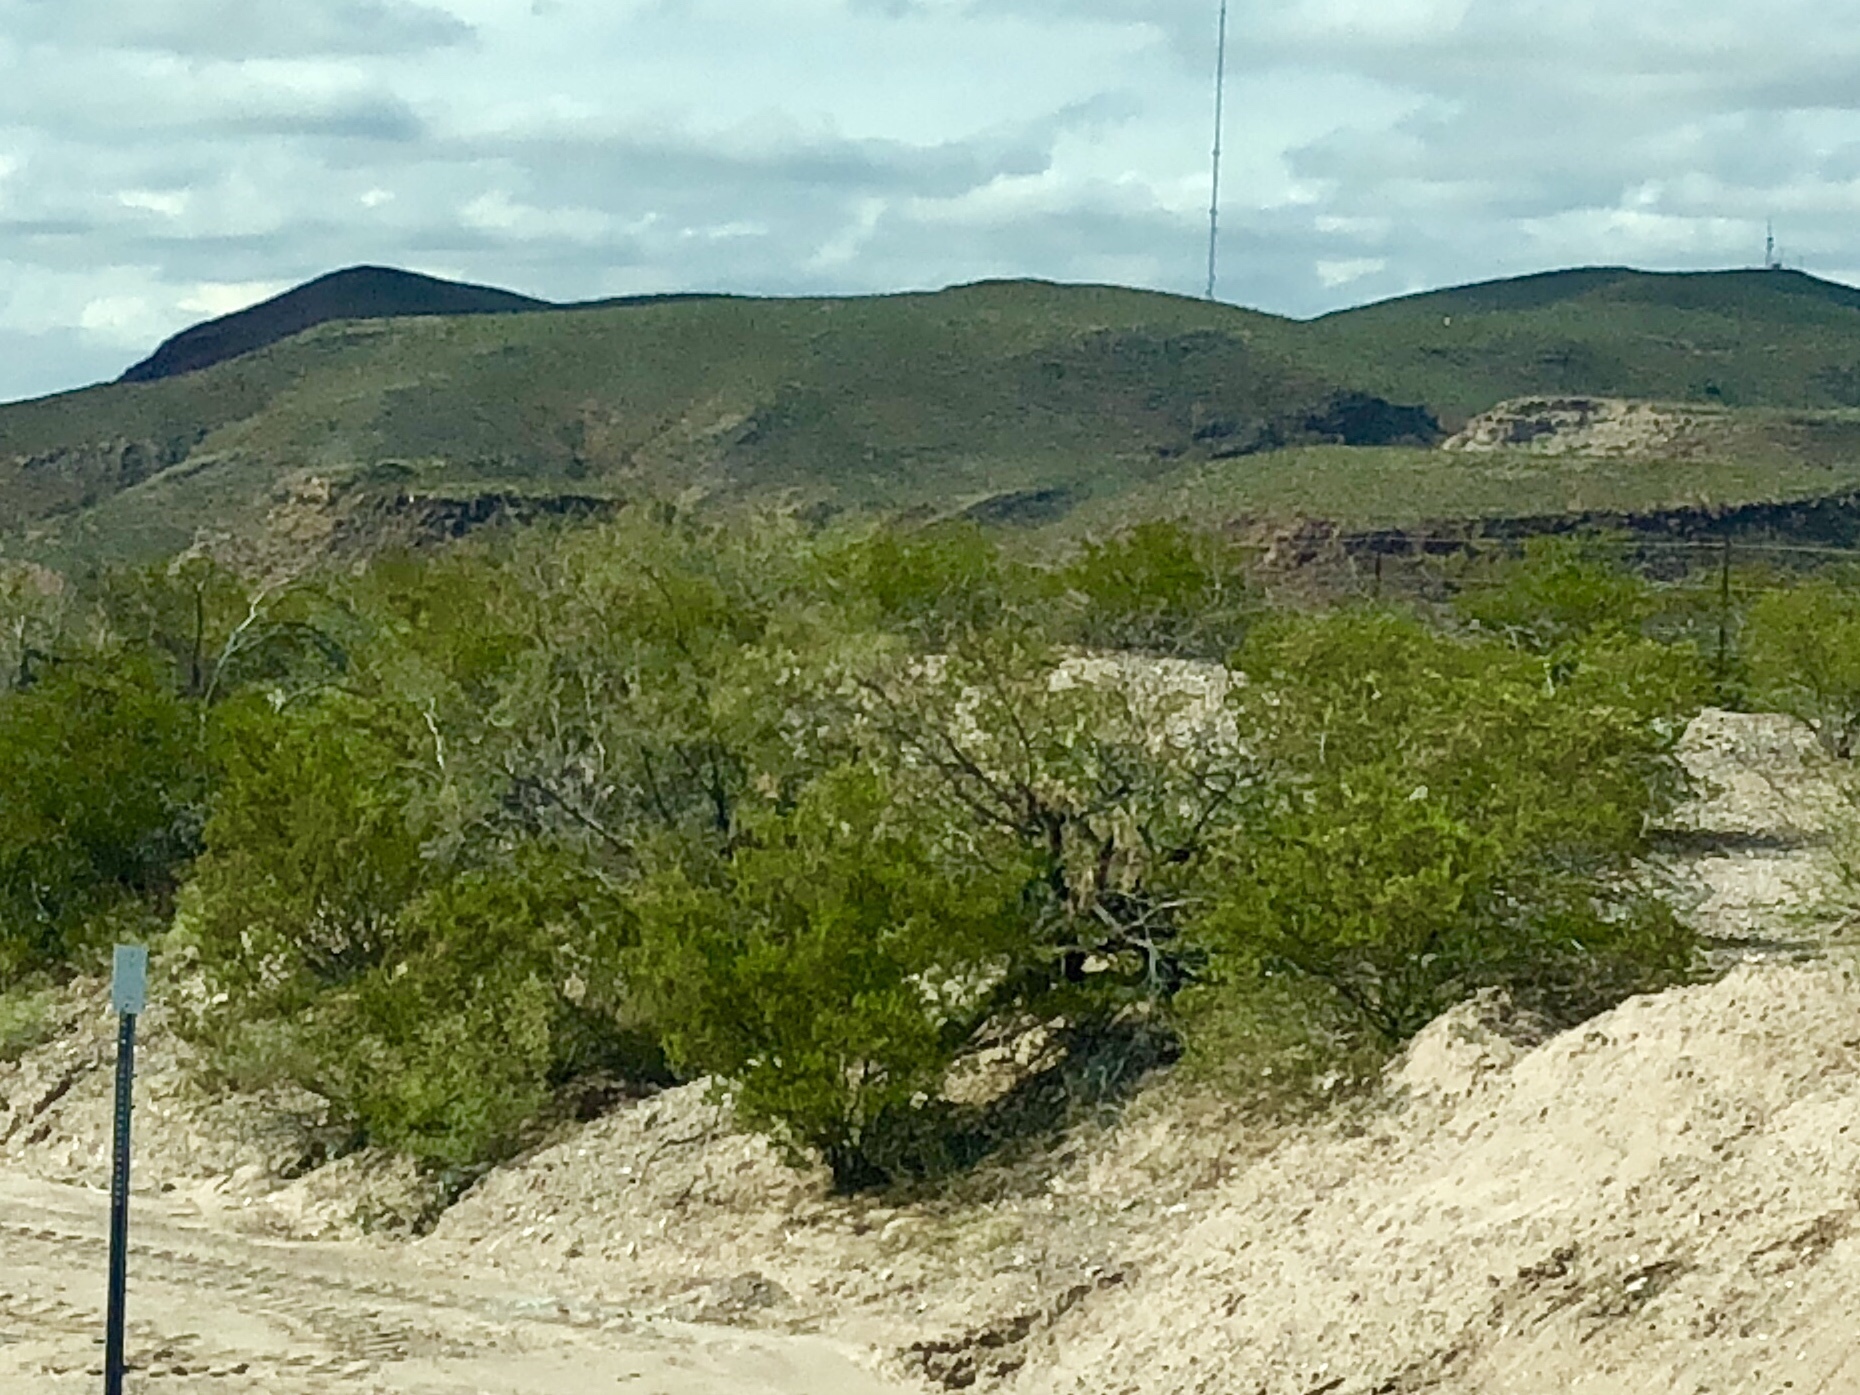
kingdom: Plantae
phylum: Tracheophyta
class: Magnoliopsida
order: Zygophyllales
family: Zygophyllaceae
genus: Larrea
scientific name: Larrea tridentata
